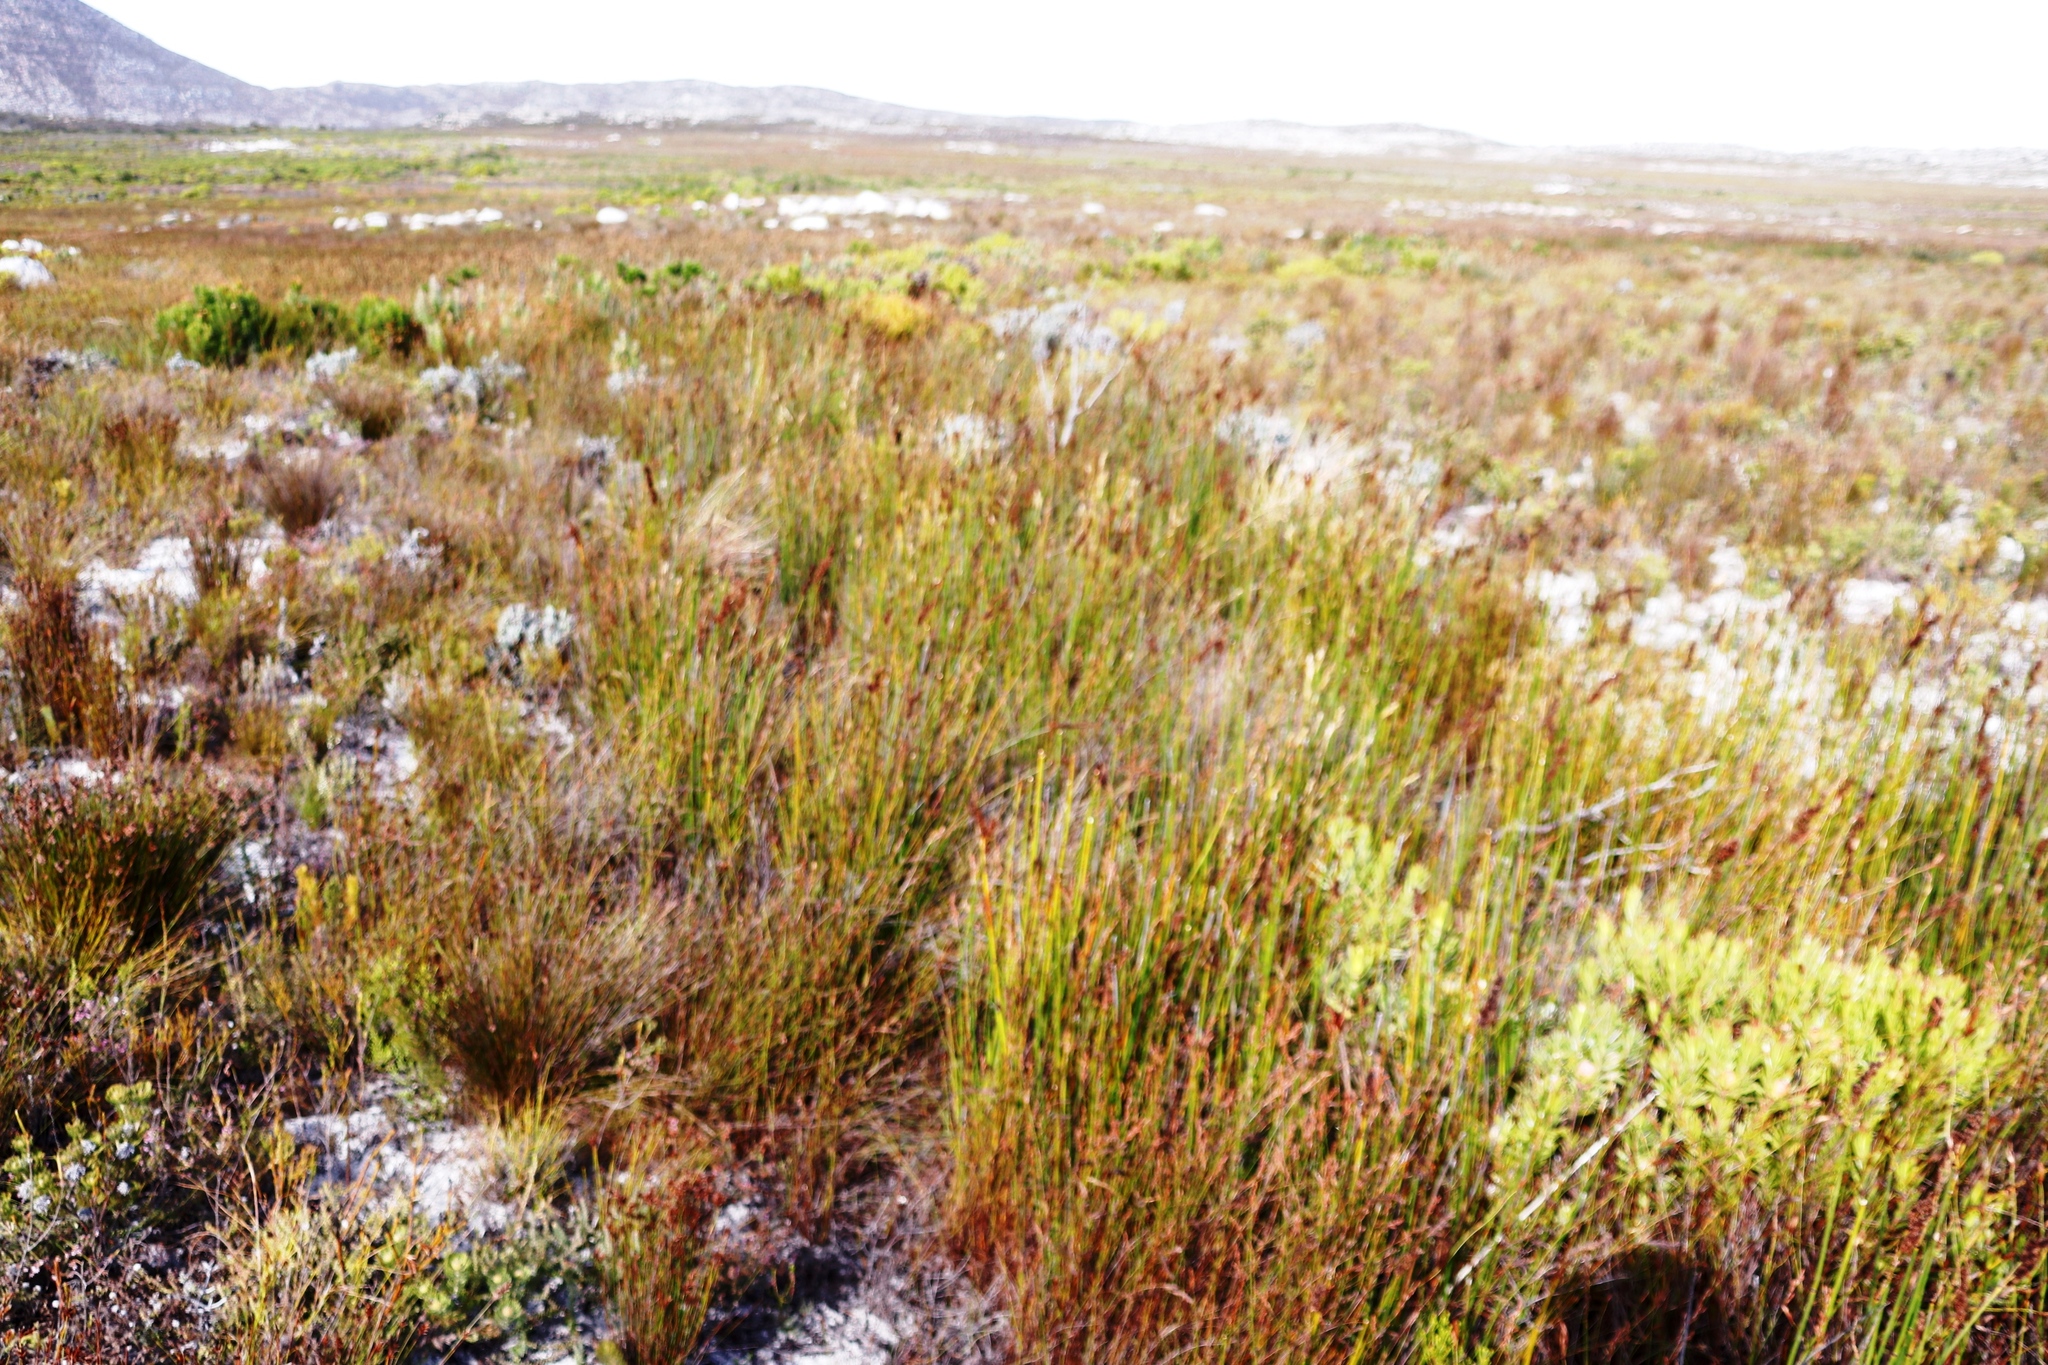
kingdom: Plantae
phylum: Tracheophyta
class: Liliopsida
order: Poales
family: Restionaceae
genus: Elegia
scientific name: Elegia cuspidata
